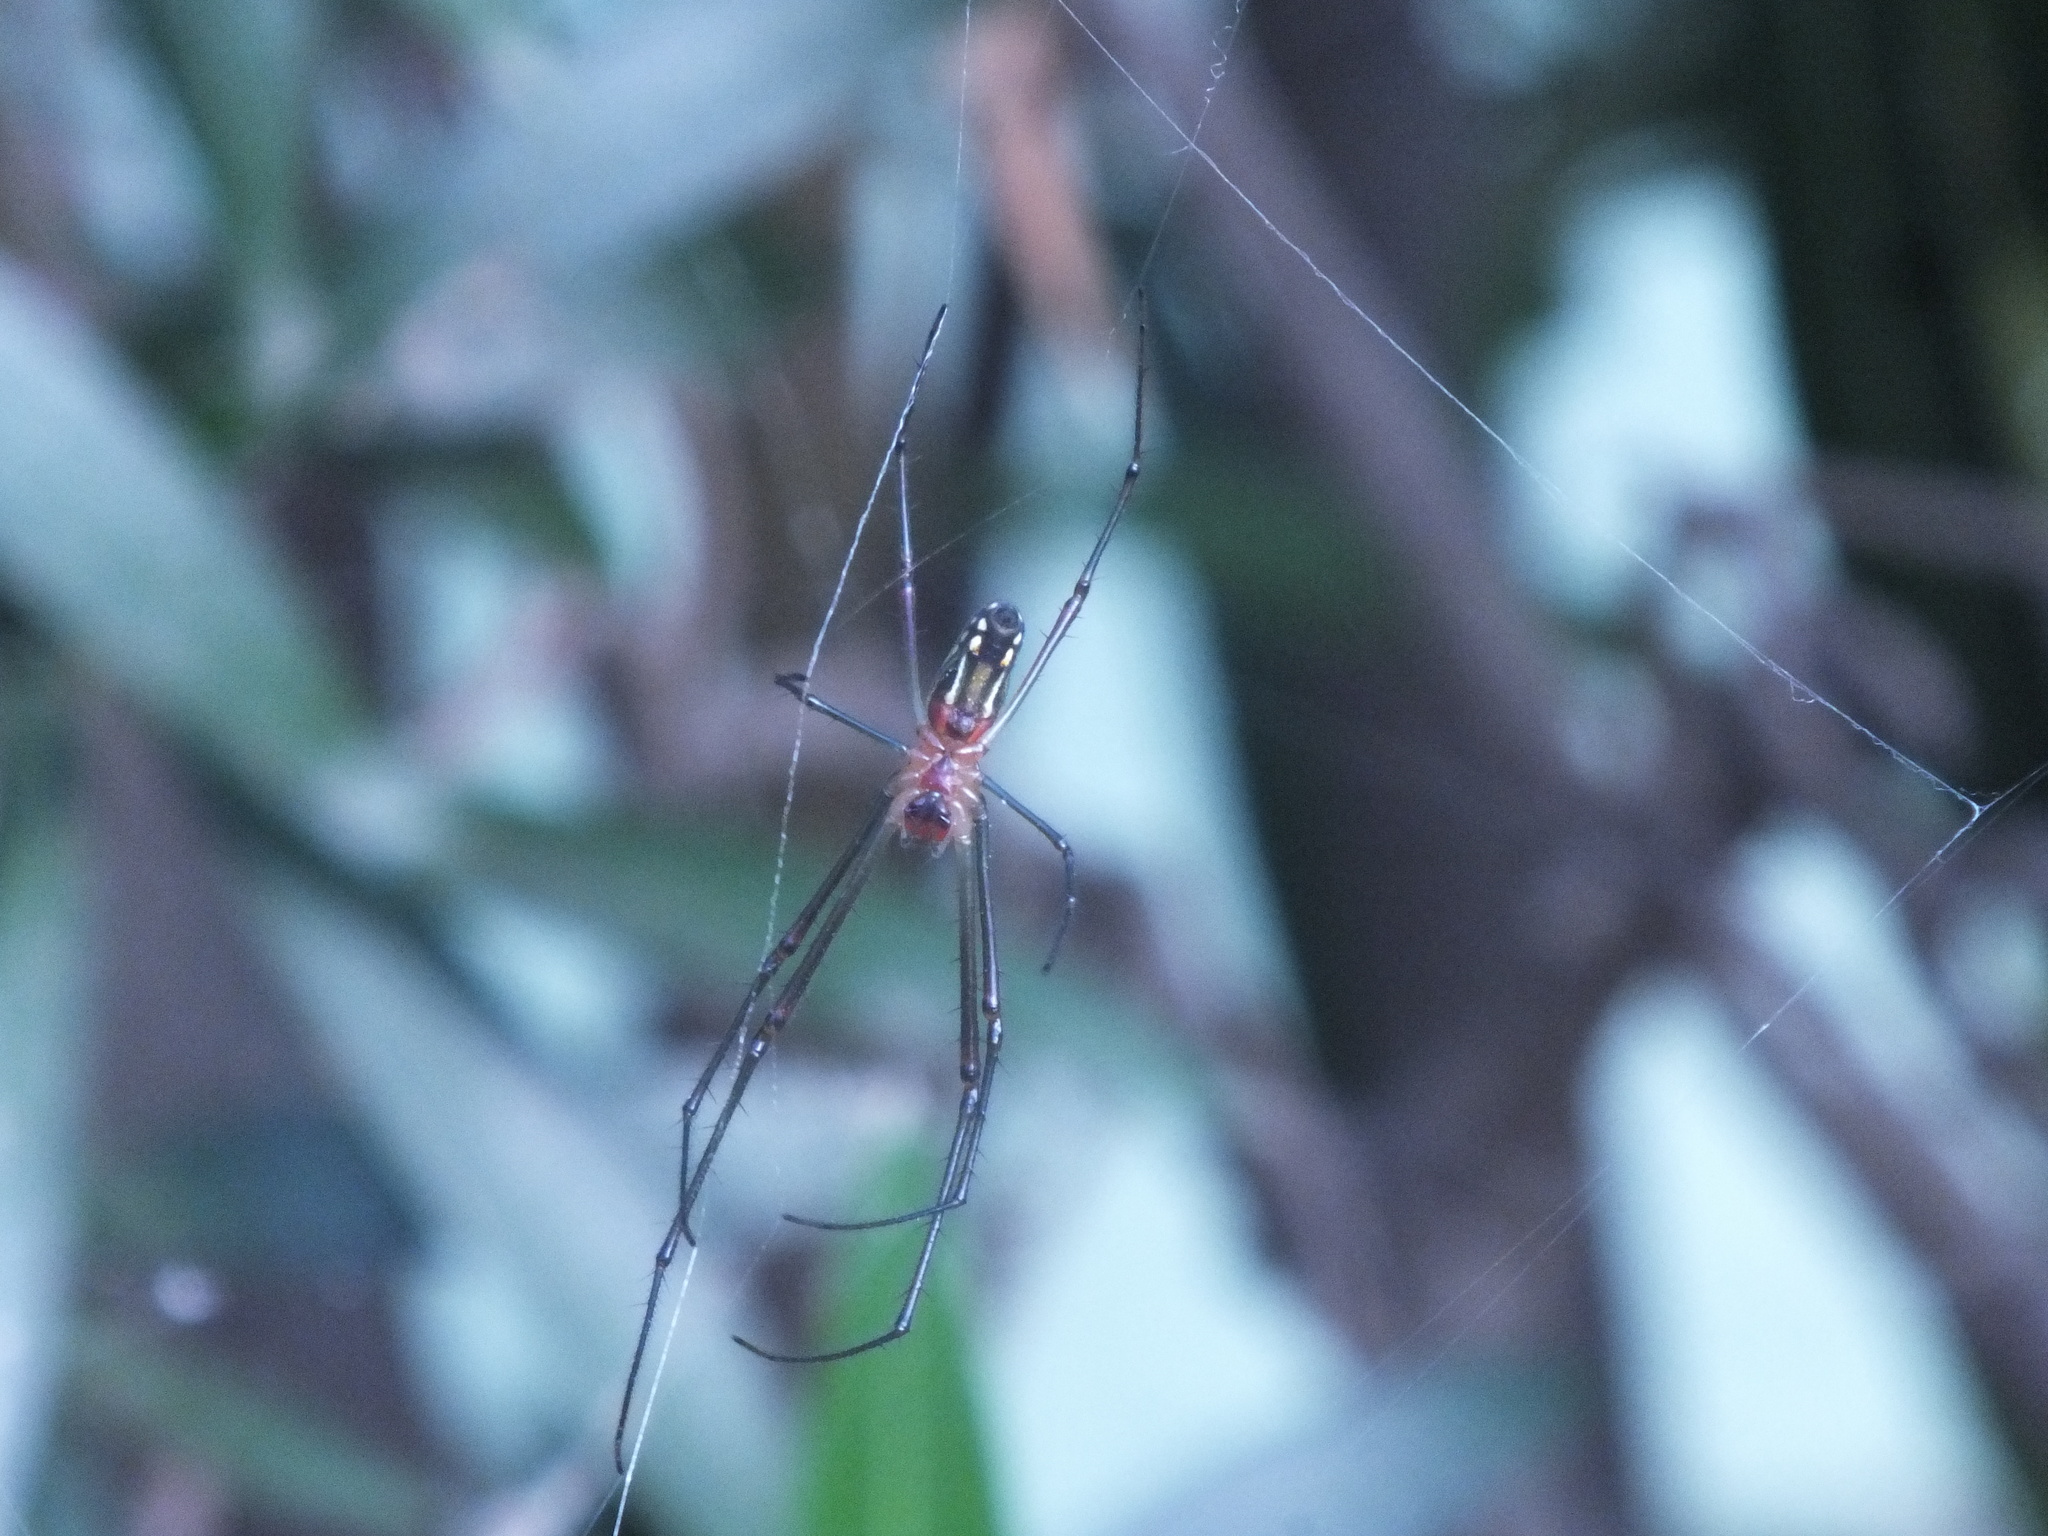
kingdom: Animalia
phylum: Arthropoda
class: Arachnida
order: Araneae
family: Tetragnathidae
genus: Leucauge
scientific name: Leucauge argyra
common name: Longjawed orb weavers
